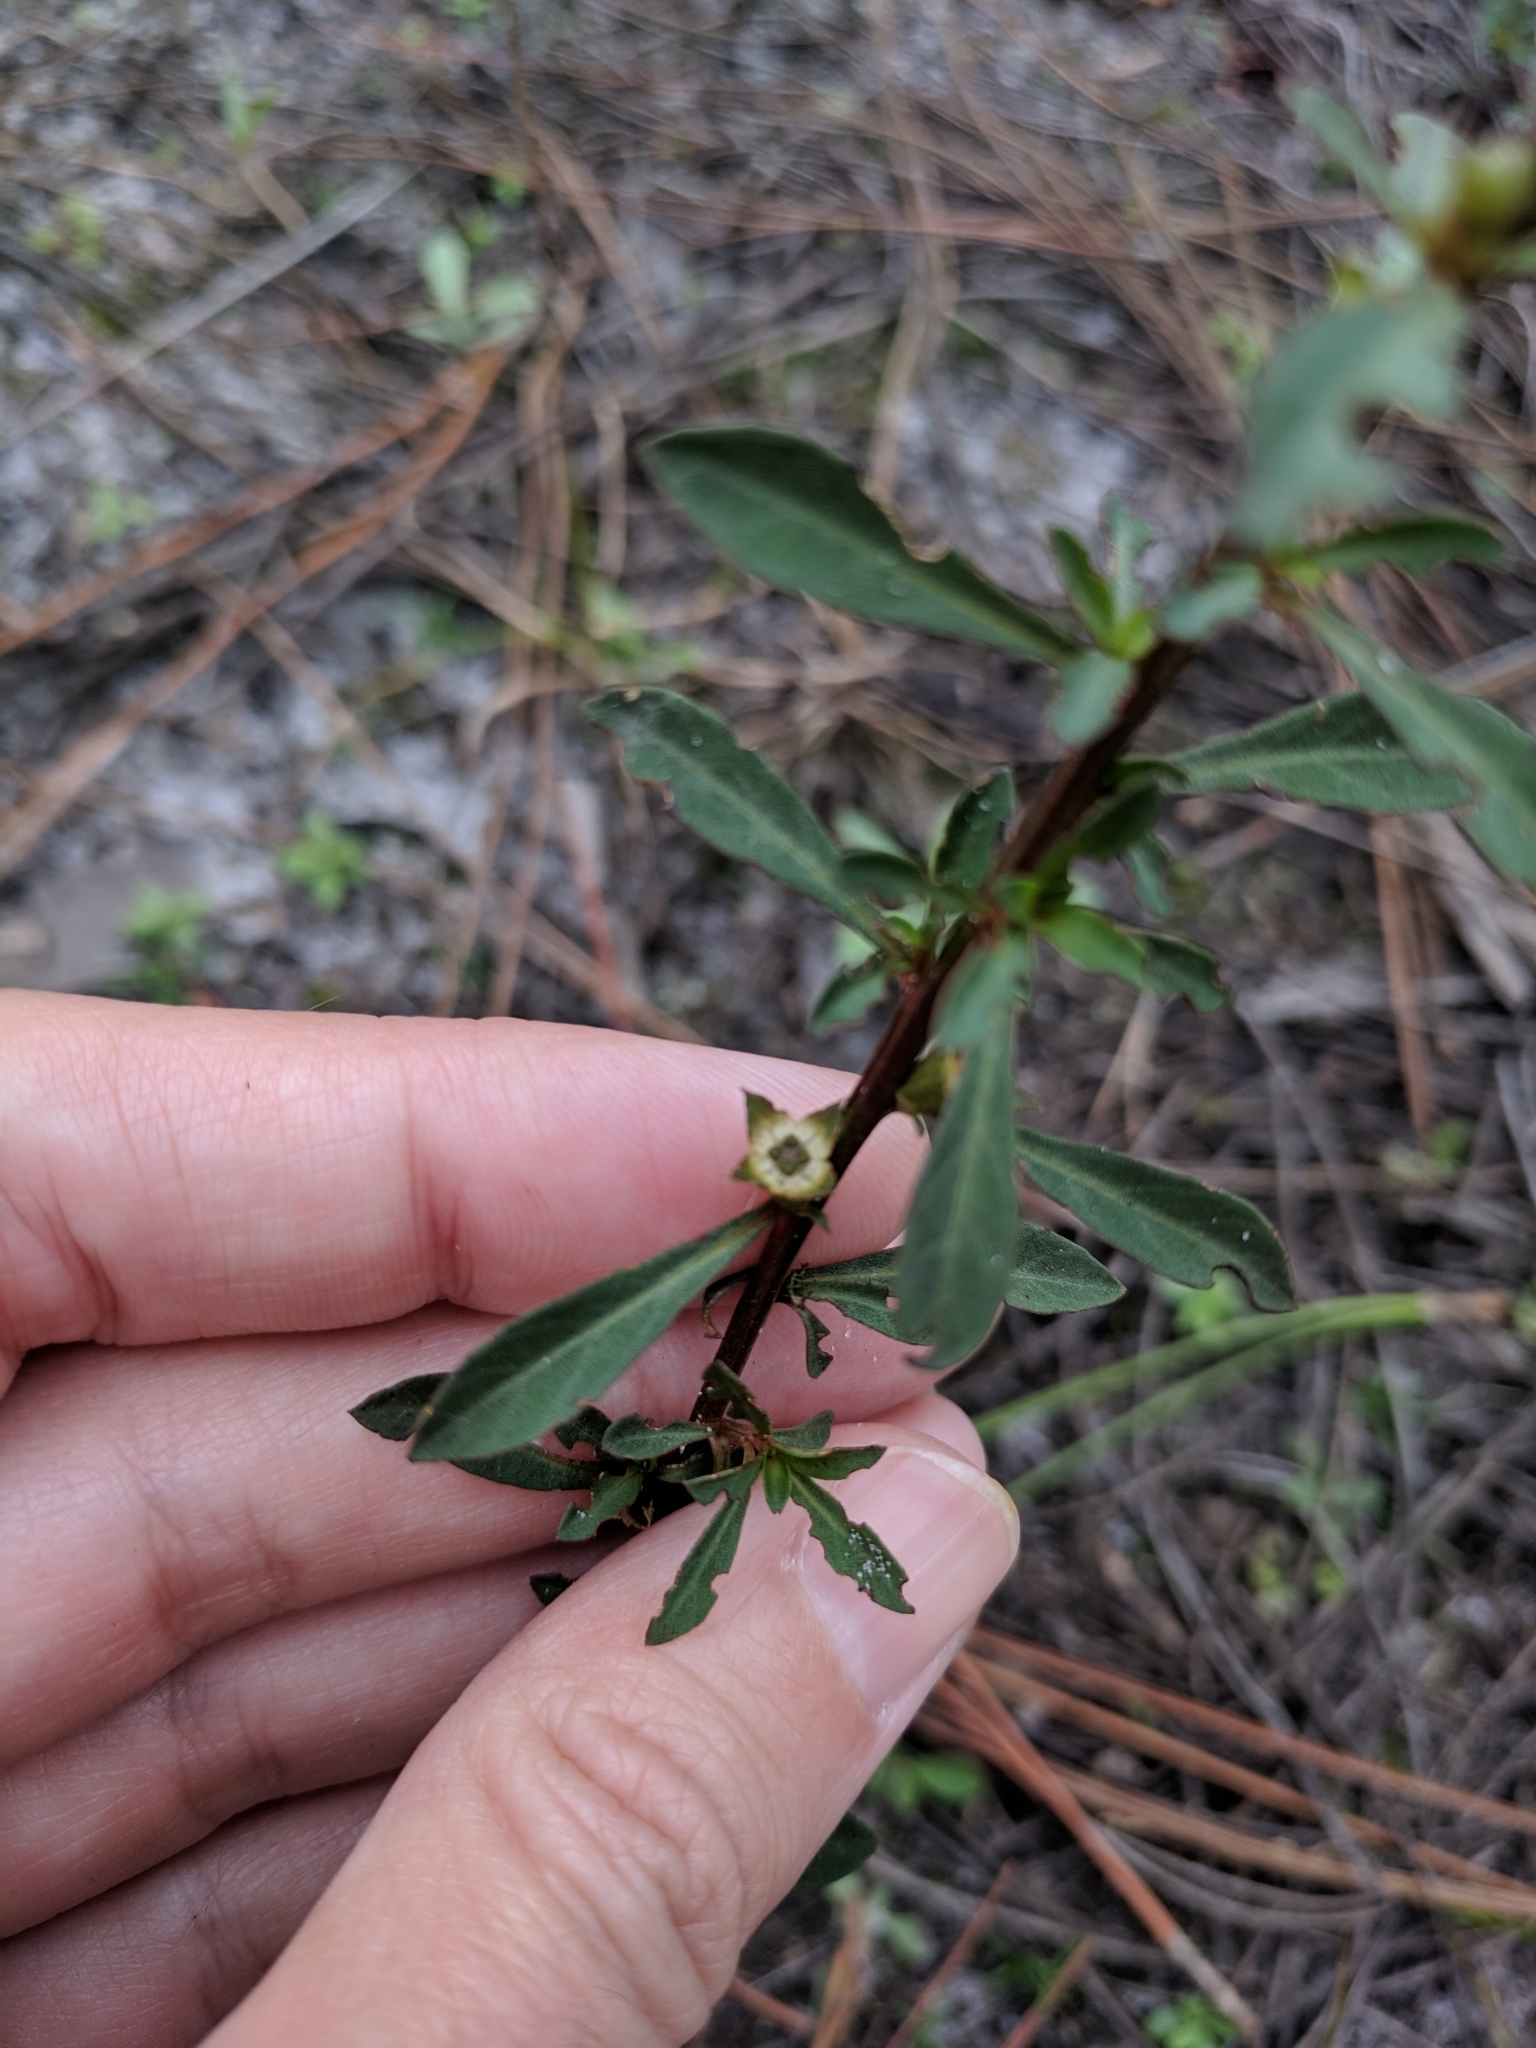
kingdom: Plantae
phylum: Tracheophyta
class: Magnoliopsida
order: Myrtales
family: Onagraceae
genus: Ludwigia
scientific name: Ludwigia curtissii
